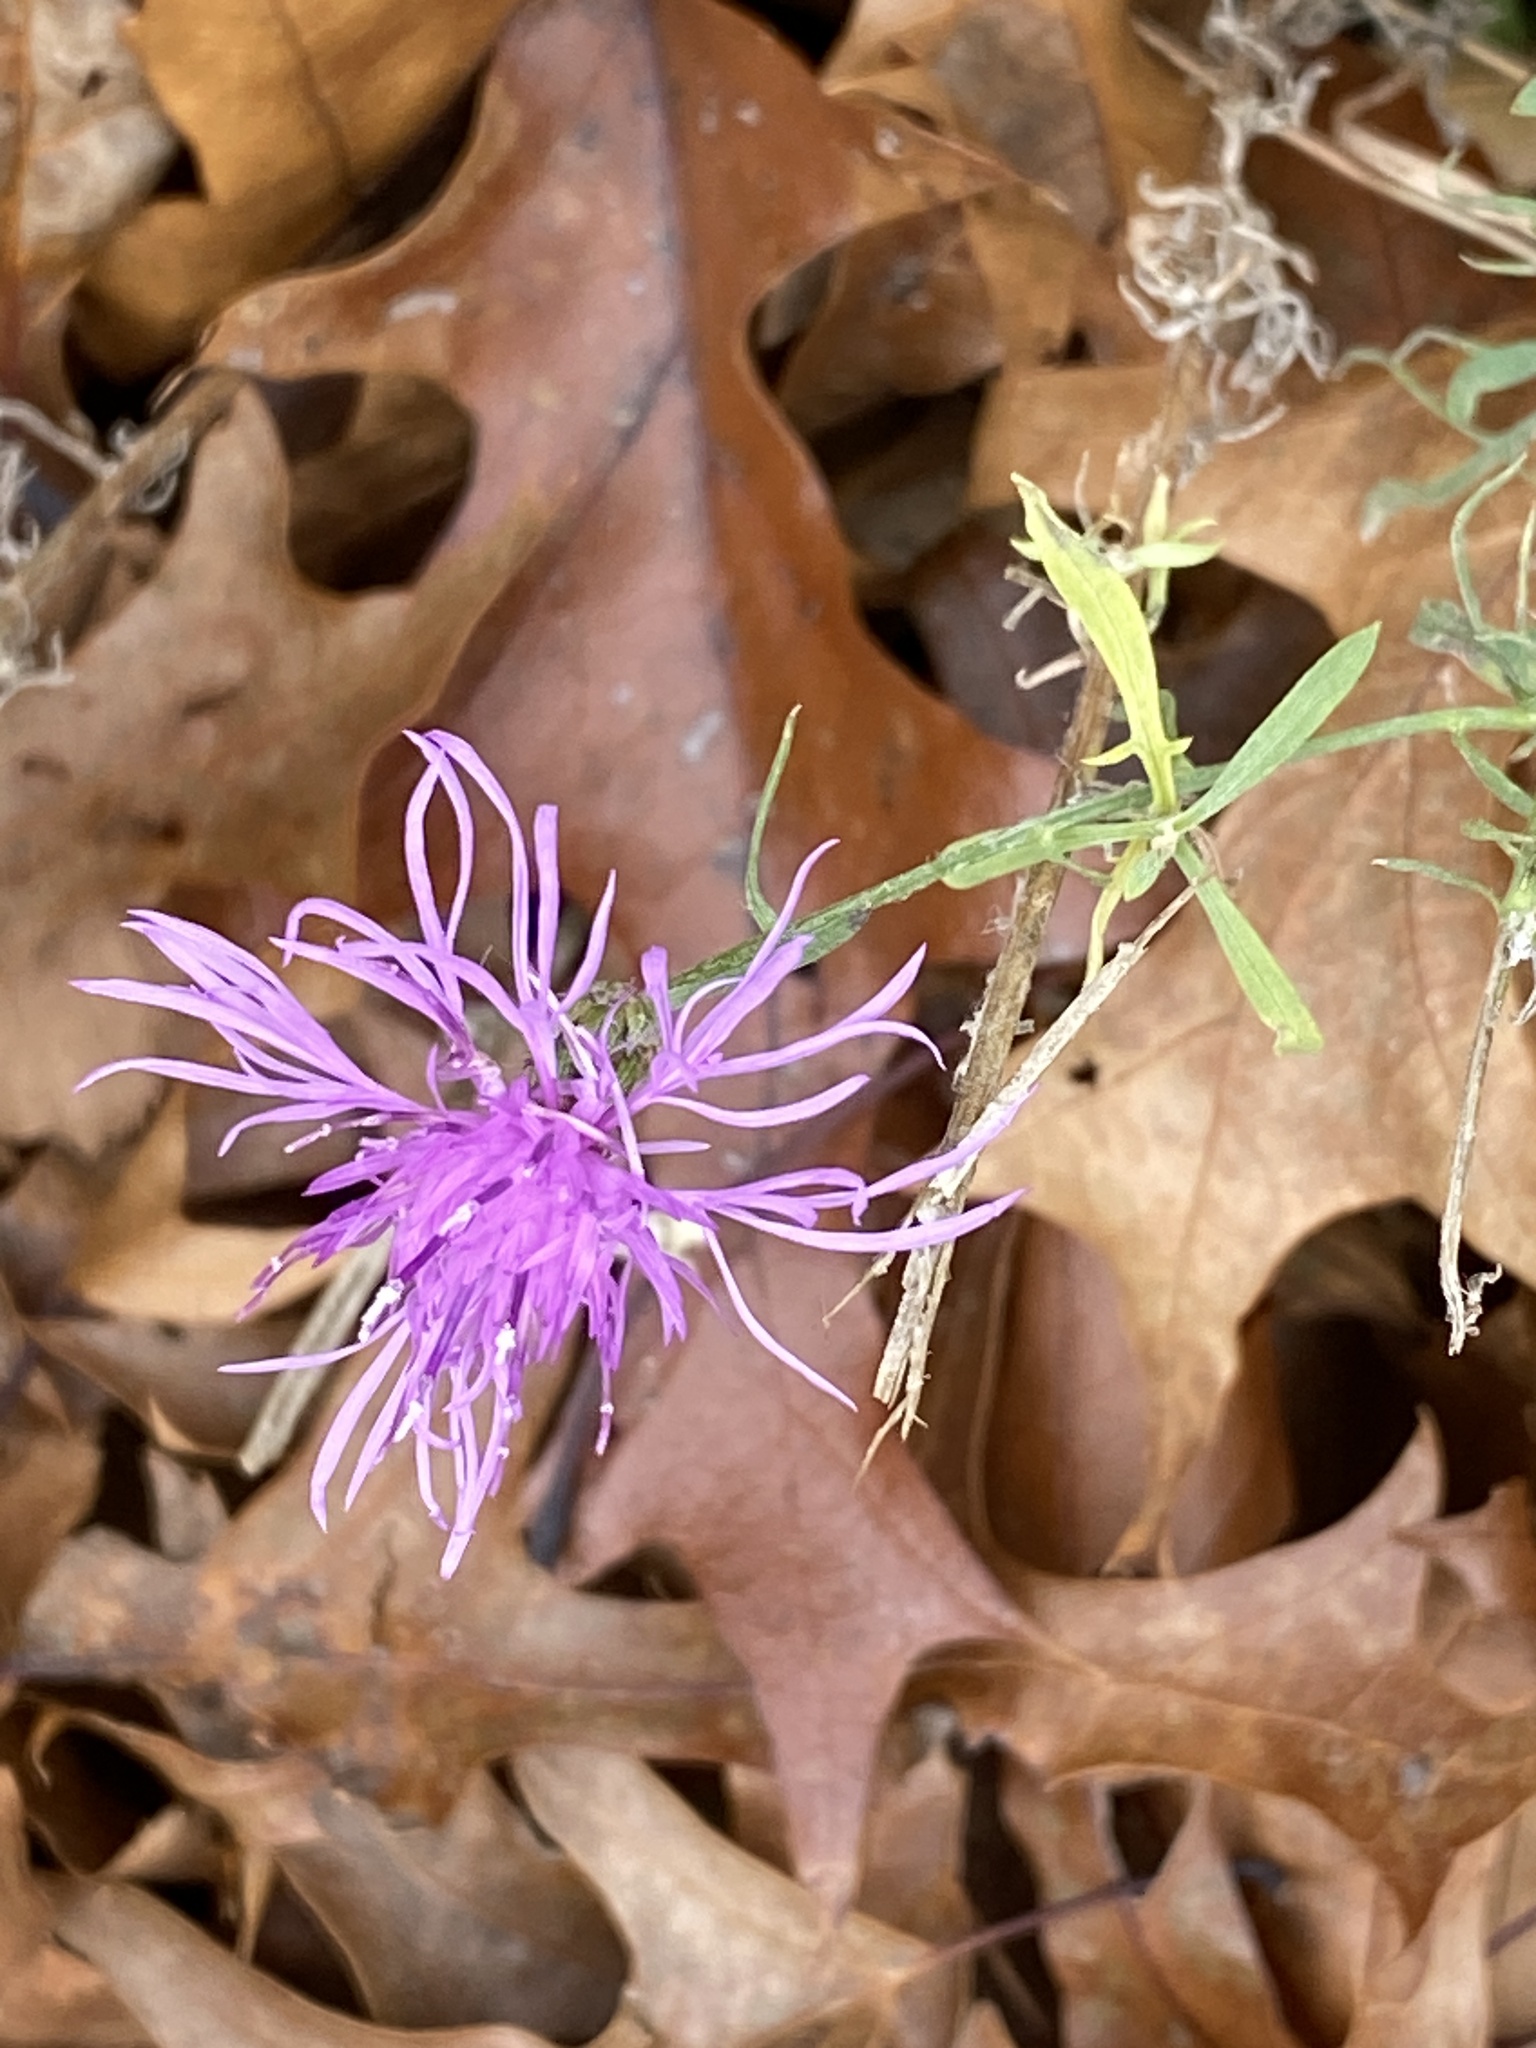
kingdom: Plantae
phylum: Tracheophyta
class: Magnoliopsida
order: Asterales
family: Asteraceae
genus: Centaurea
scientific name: Centaurea stoebe
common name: Spotted knapweed
